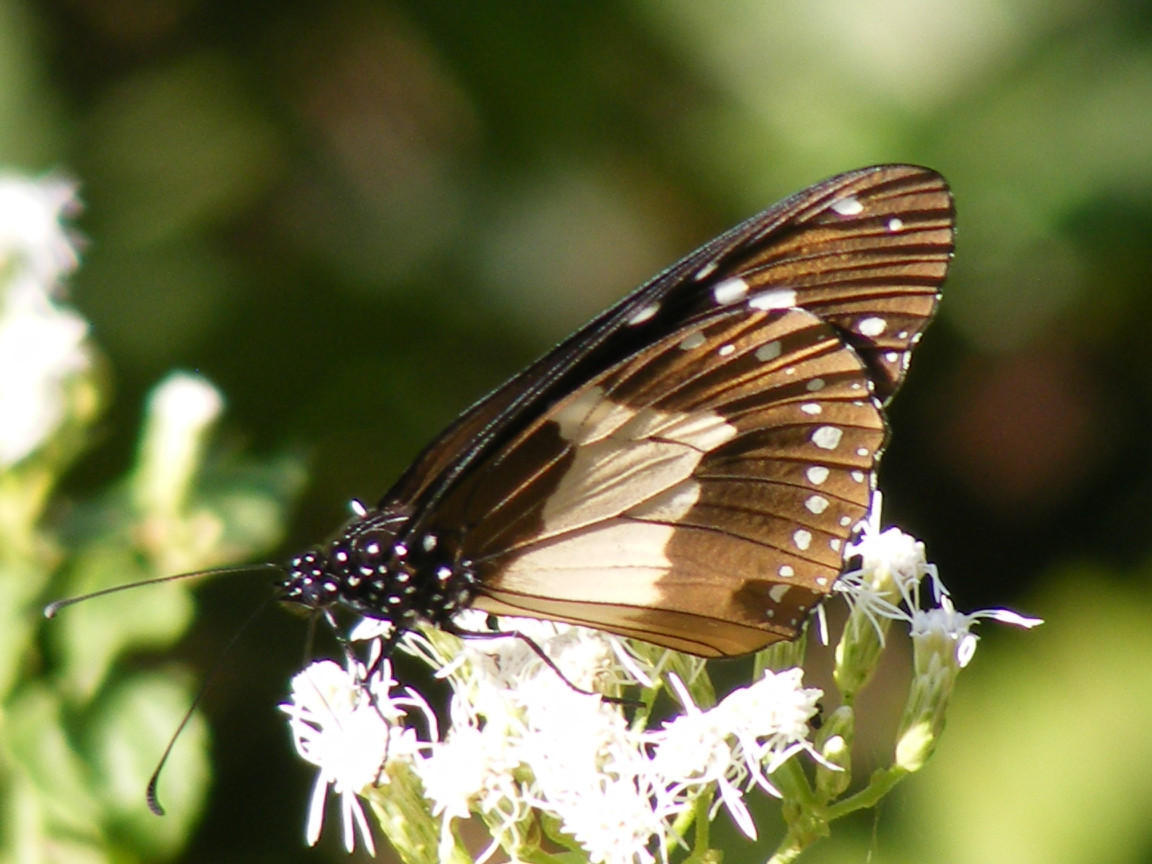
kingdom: Animalia
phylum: Arthropoda
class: Insecta
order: Lepidoptera
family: Nymphalidae
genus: Amauris
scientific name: Amauris albimaculata
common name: Layman
